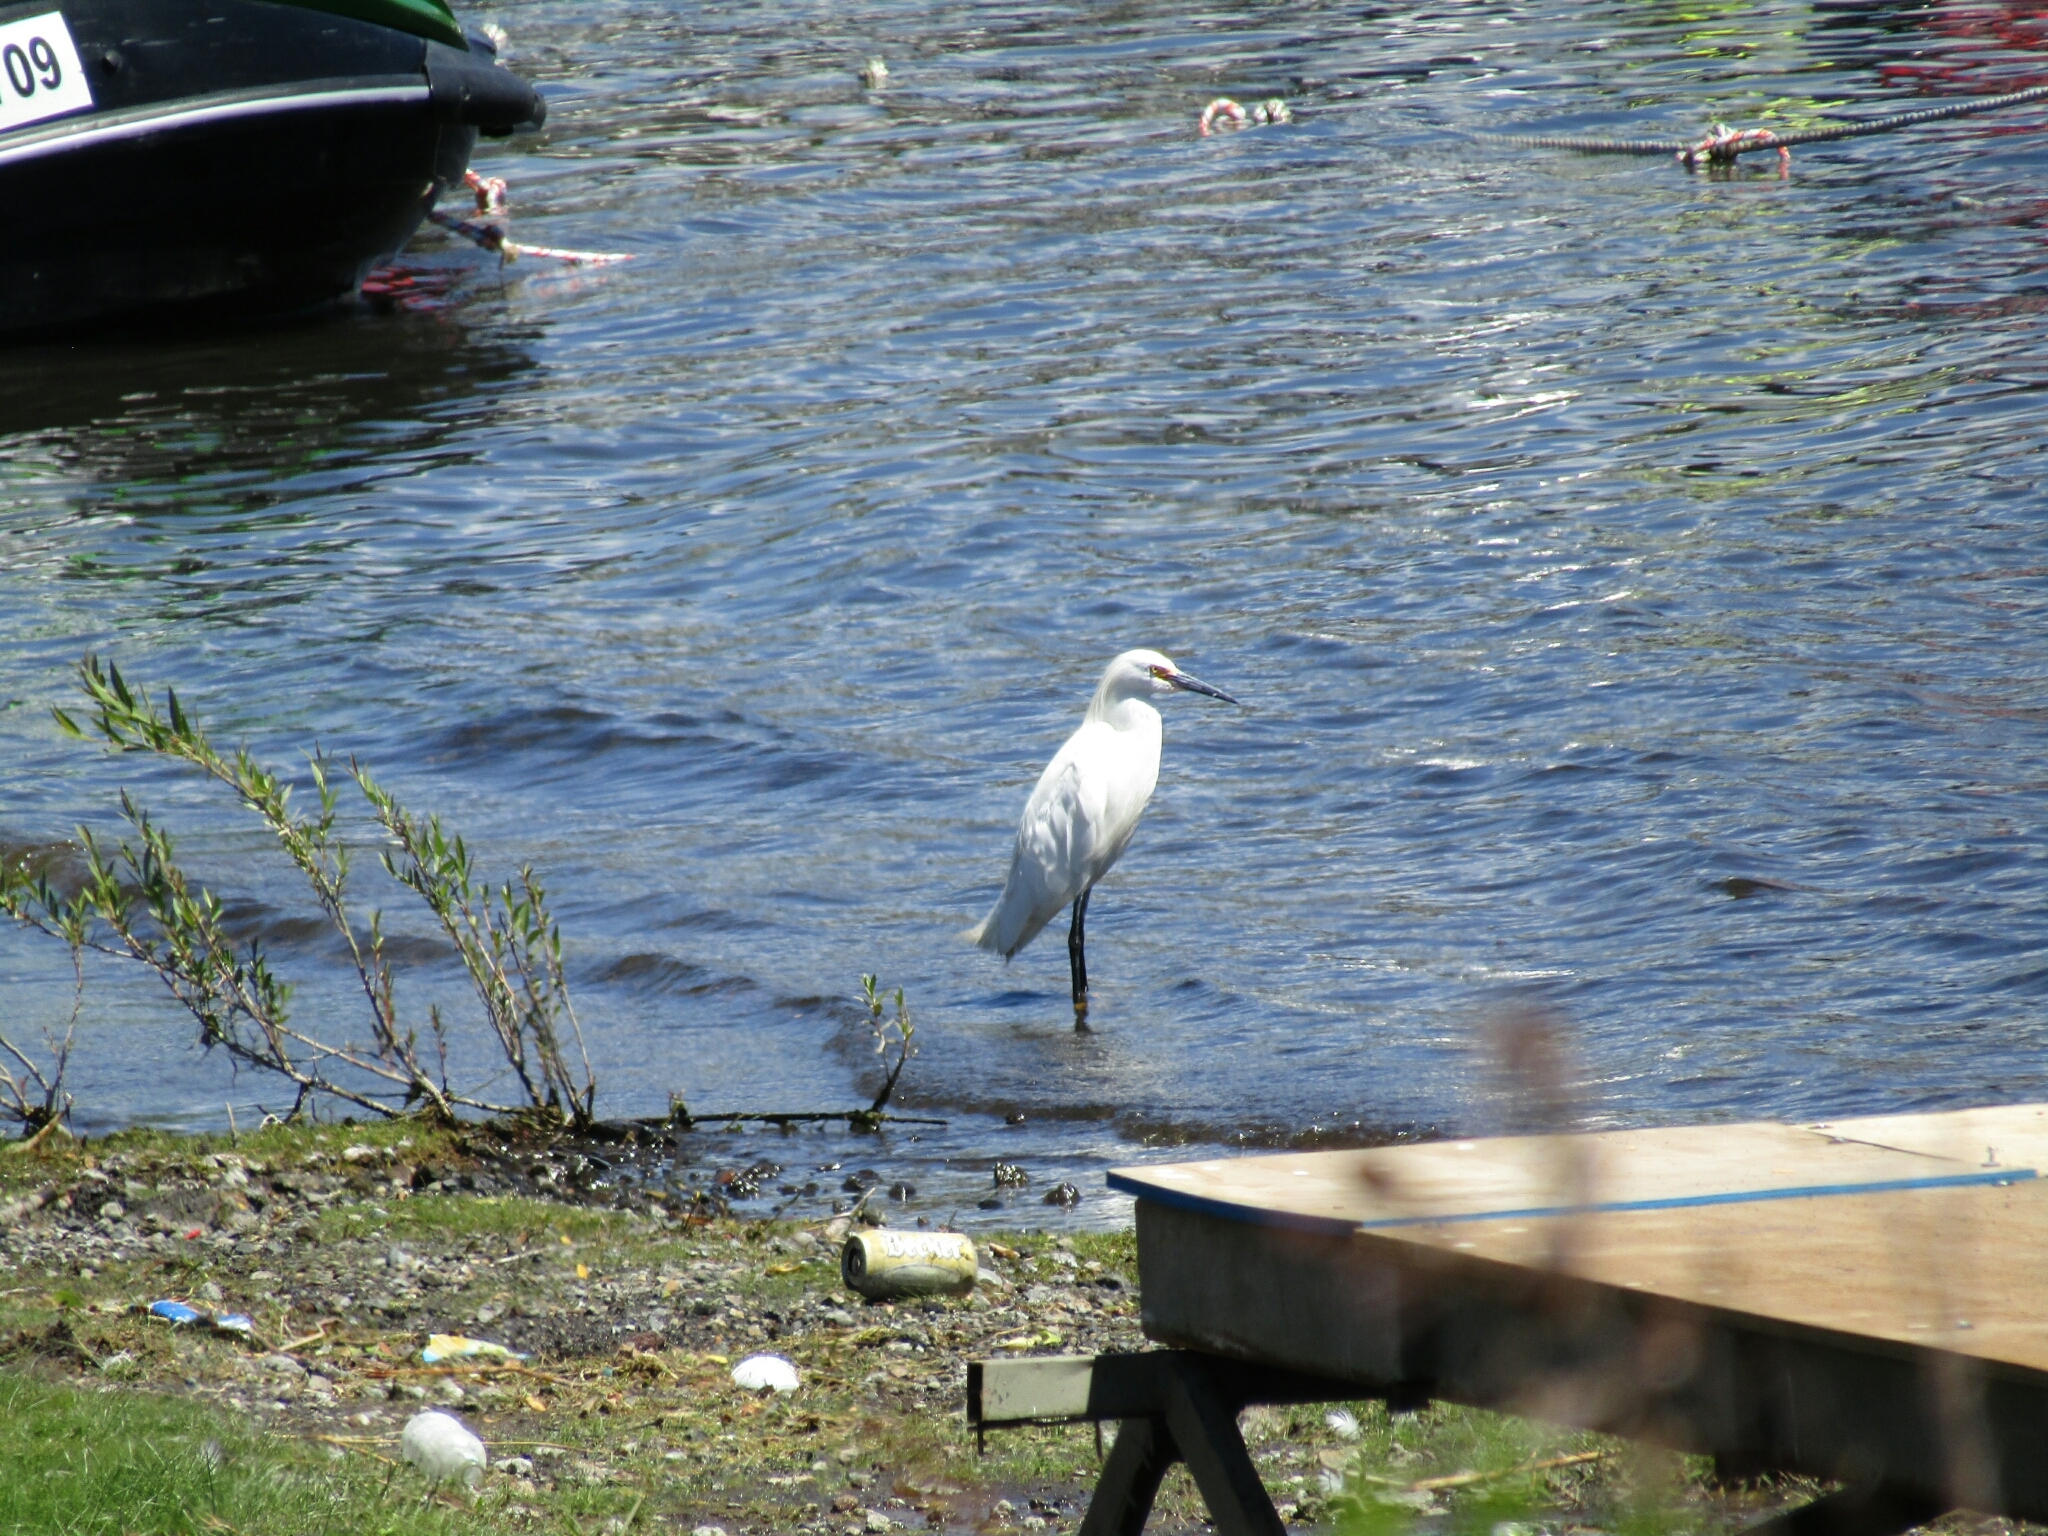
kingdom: Animalia
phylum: Chordata
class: Aves
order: Pelecaniformes
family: Ardeidae
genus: Egretta
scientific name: Egretta thula
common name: Snowy egret
